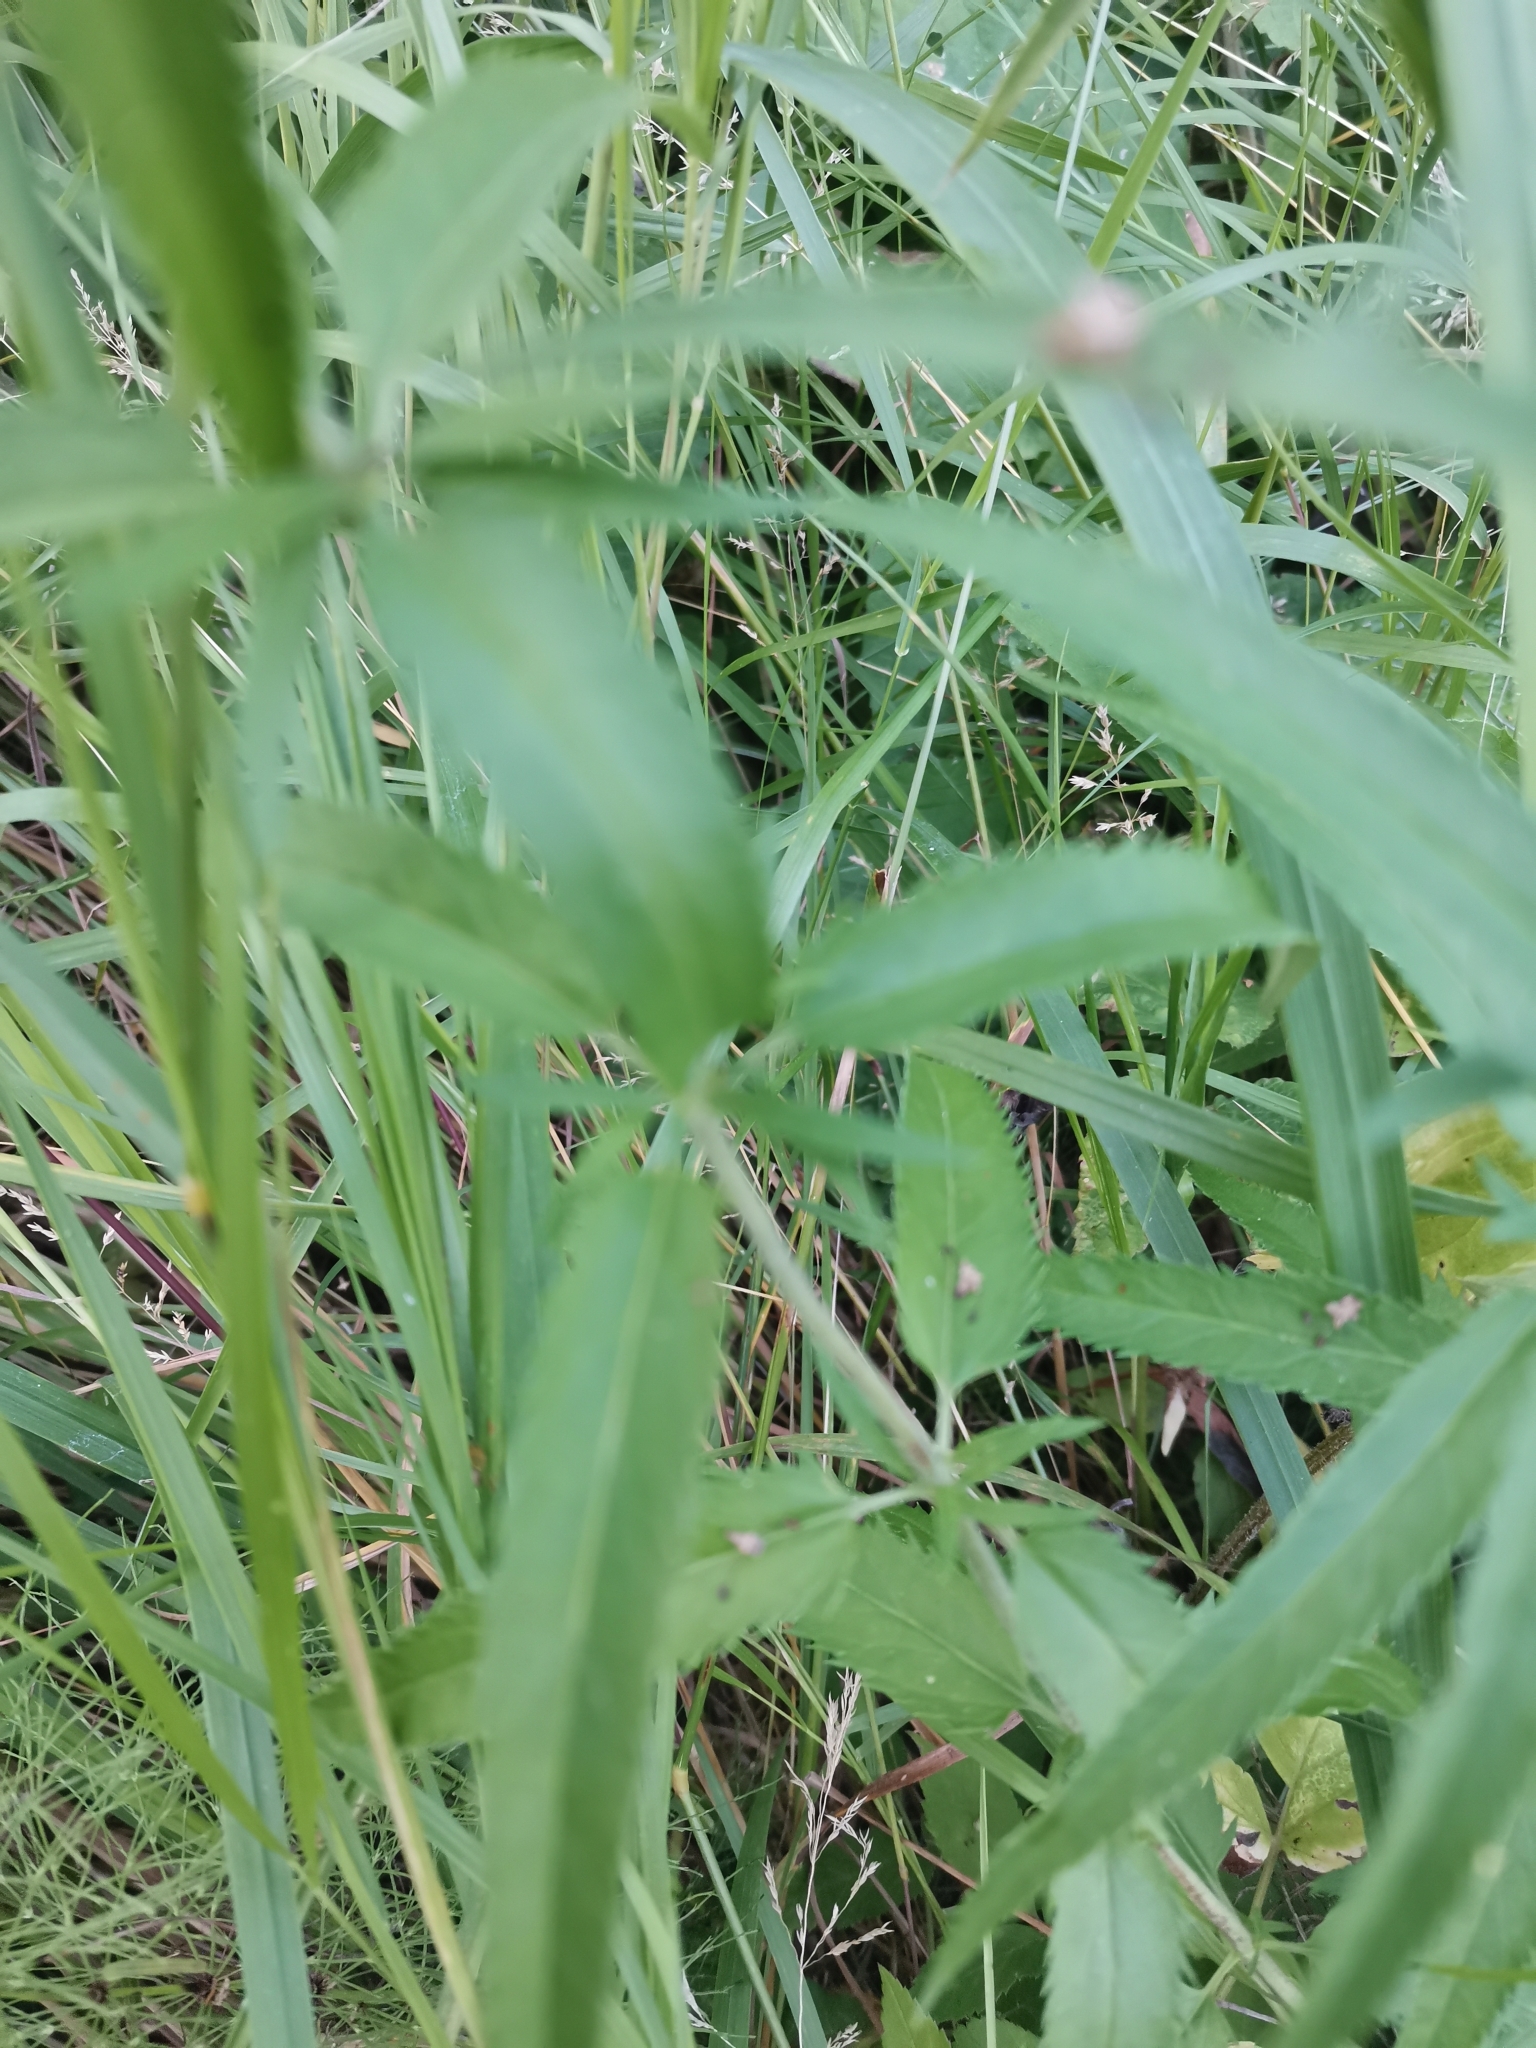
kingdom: Plantae
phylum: Tracheophyta
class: Magnoliopsida
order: Lamiales
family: Plantaginaceae
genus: Veronica
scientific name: Veronica longifolia
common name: Garden speedwell
